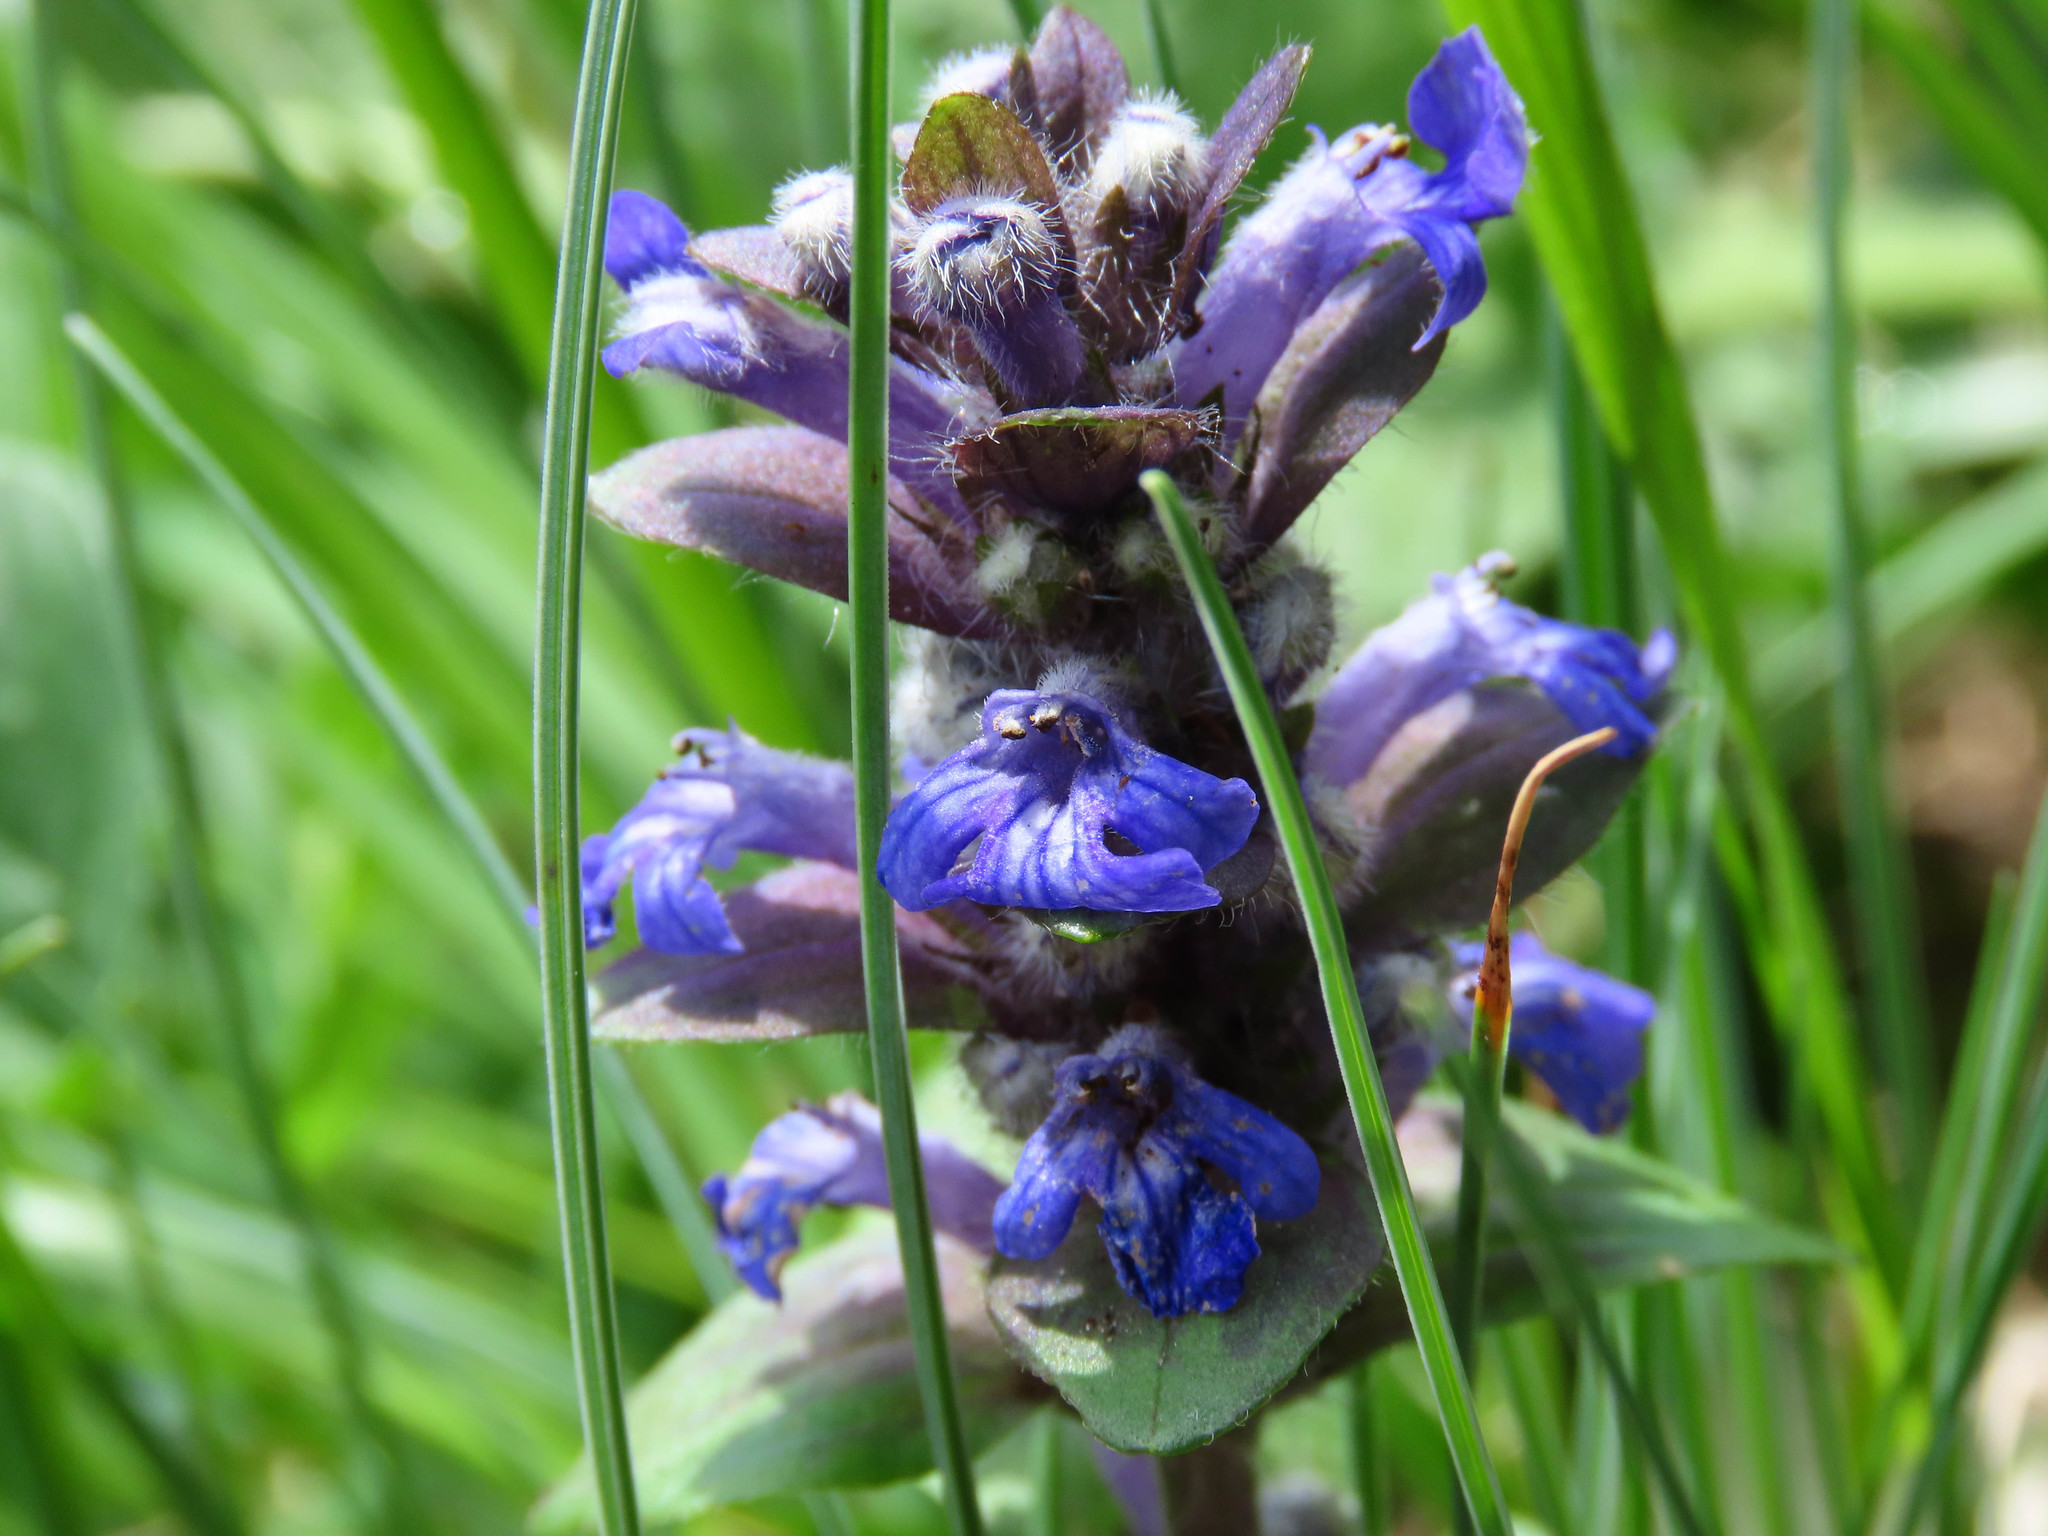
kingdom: Plantae
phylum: Tracheophyta
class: Magnoliopsida
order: Lamiales
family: Lamiaceae
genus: Ajuga
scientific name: Ajuga reptans
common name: Bugle
